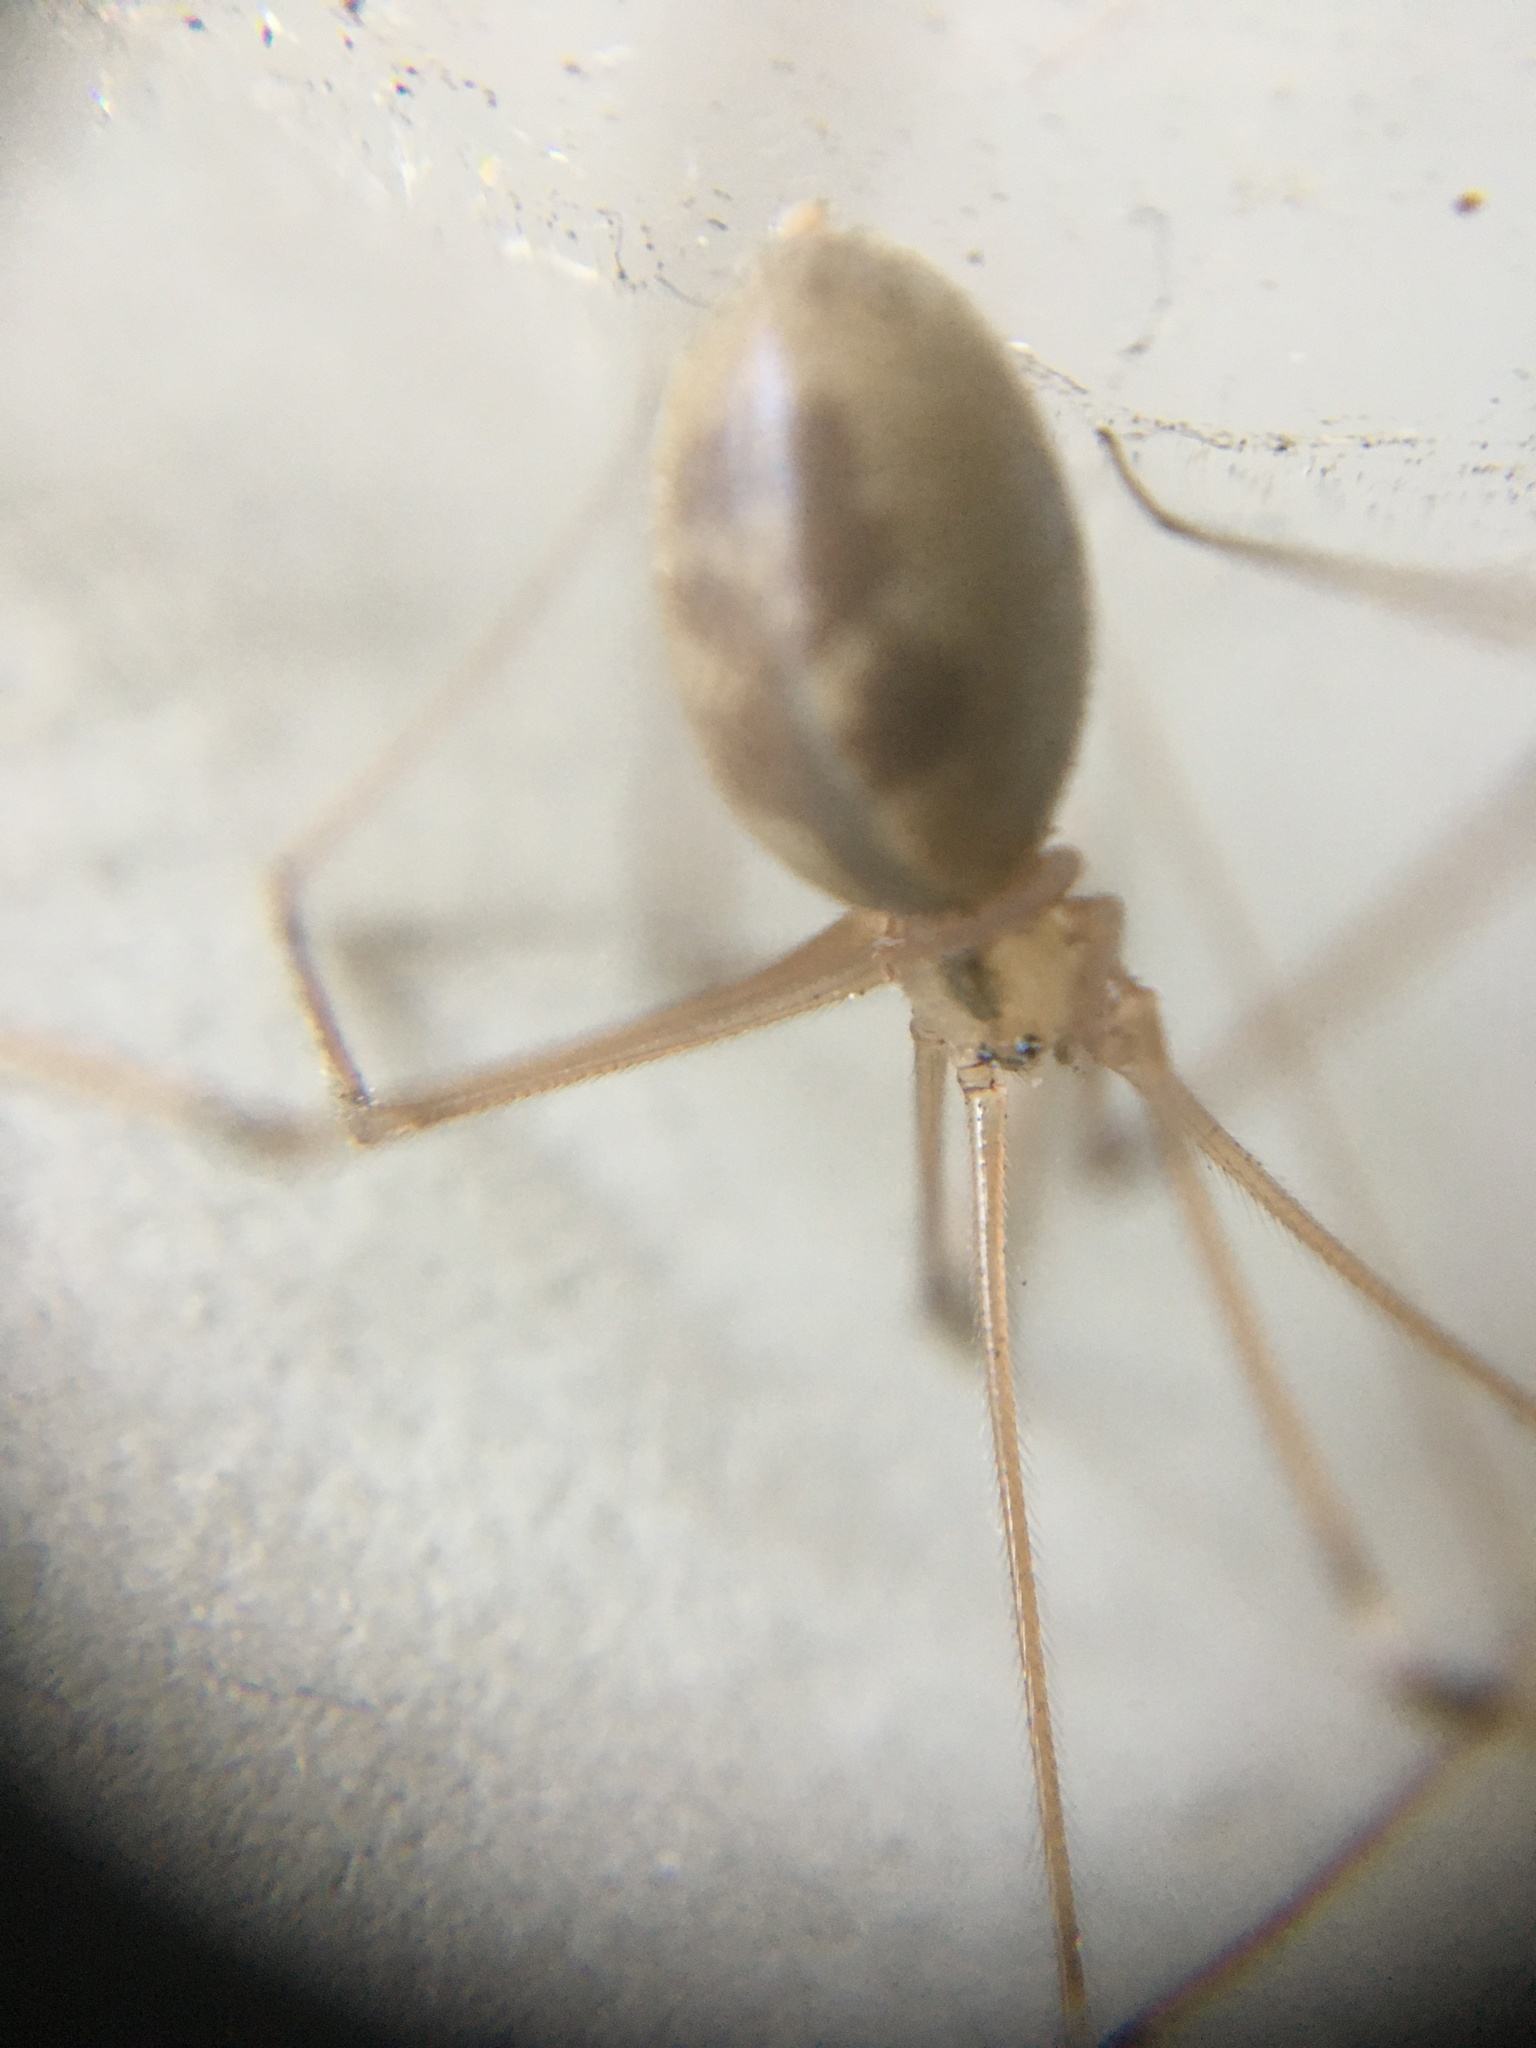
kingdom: Animalia
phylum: Arthropoda
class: Arachnida
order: Araneae
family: Pholcidae
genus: Pholcus
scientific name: Pholcus phalangioides
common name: Longbodied cellar spider
